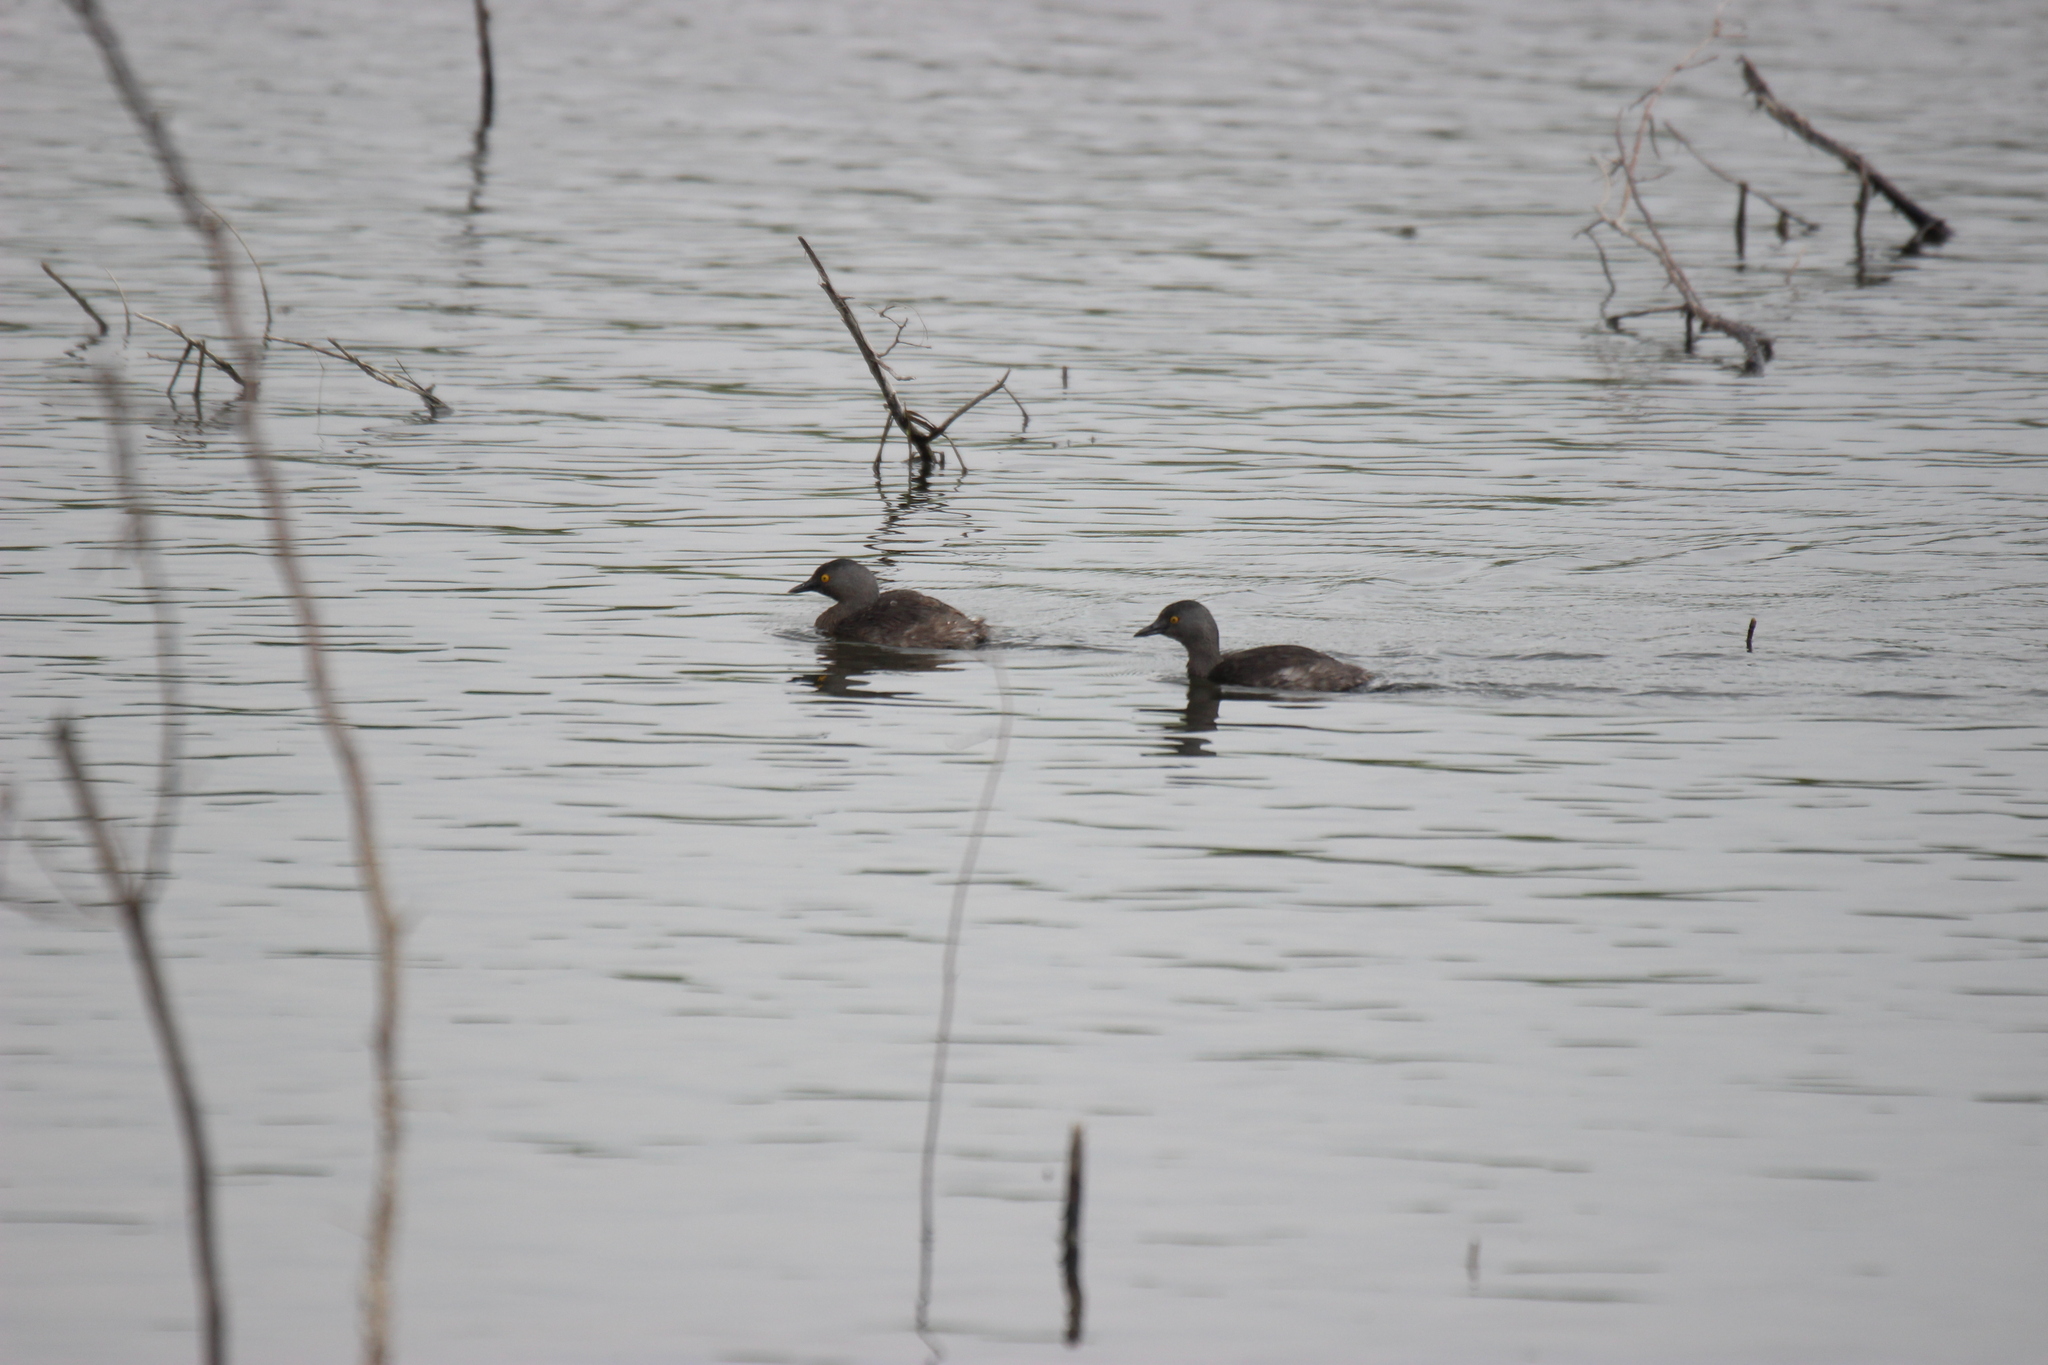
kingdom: Animalia
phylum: Chordata
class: Aves
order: Podicipediformes
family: Podicipedidae
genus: Tachybaptus
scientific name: Tachybaptus dominicus
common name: Least grebe
